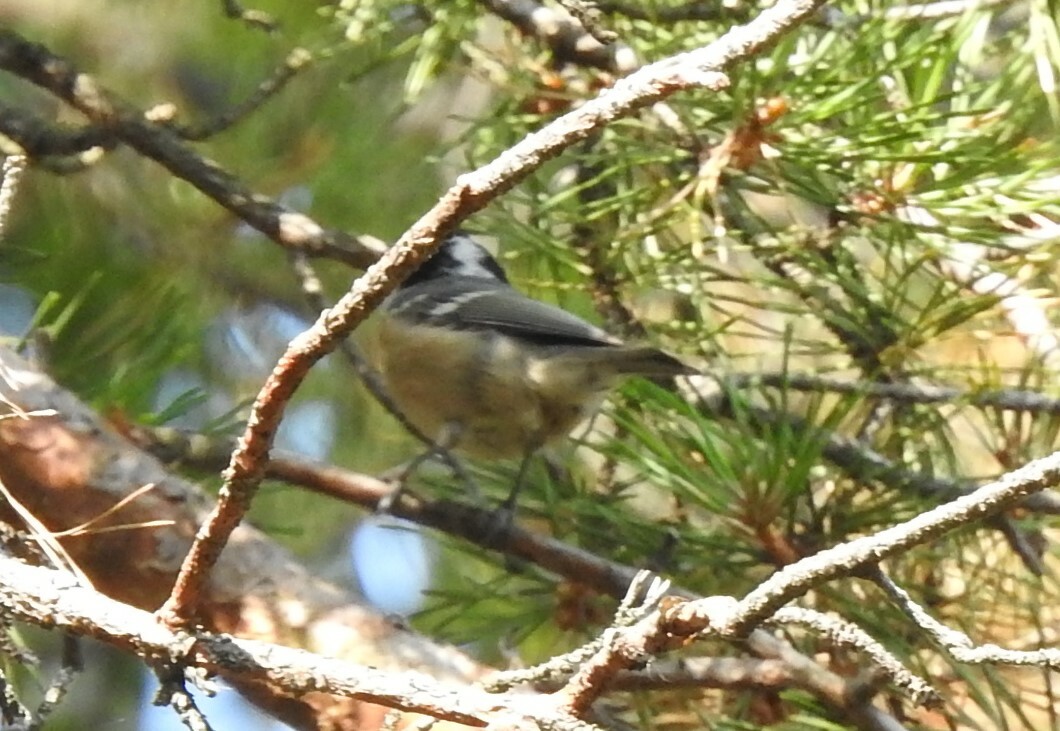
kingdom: Animalia
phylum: Chordata
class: Aves
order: Passeriformes
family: Paridae
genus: Periparus
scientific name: Periparus ater
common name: Coal tit
